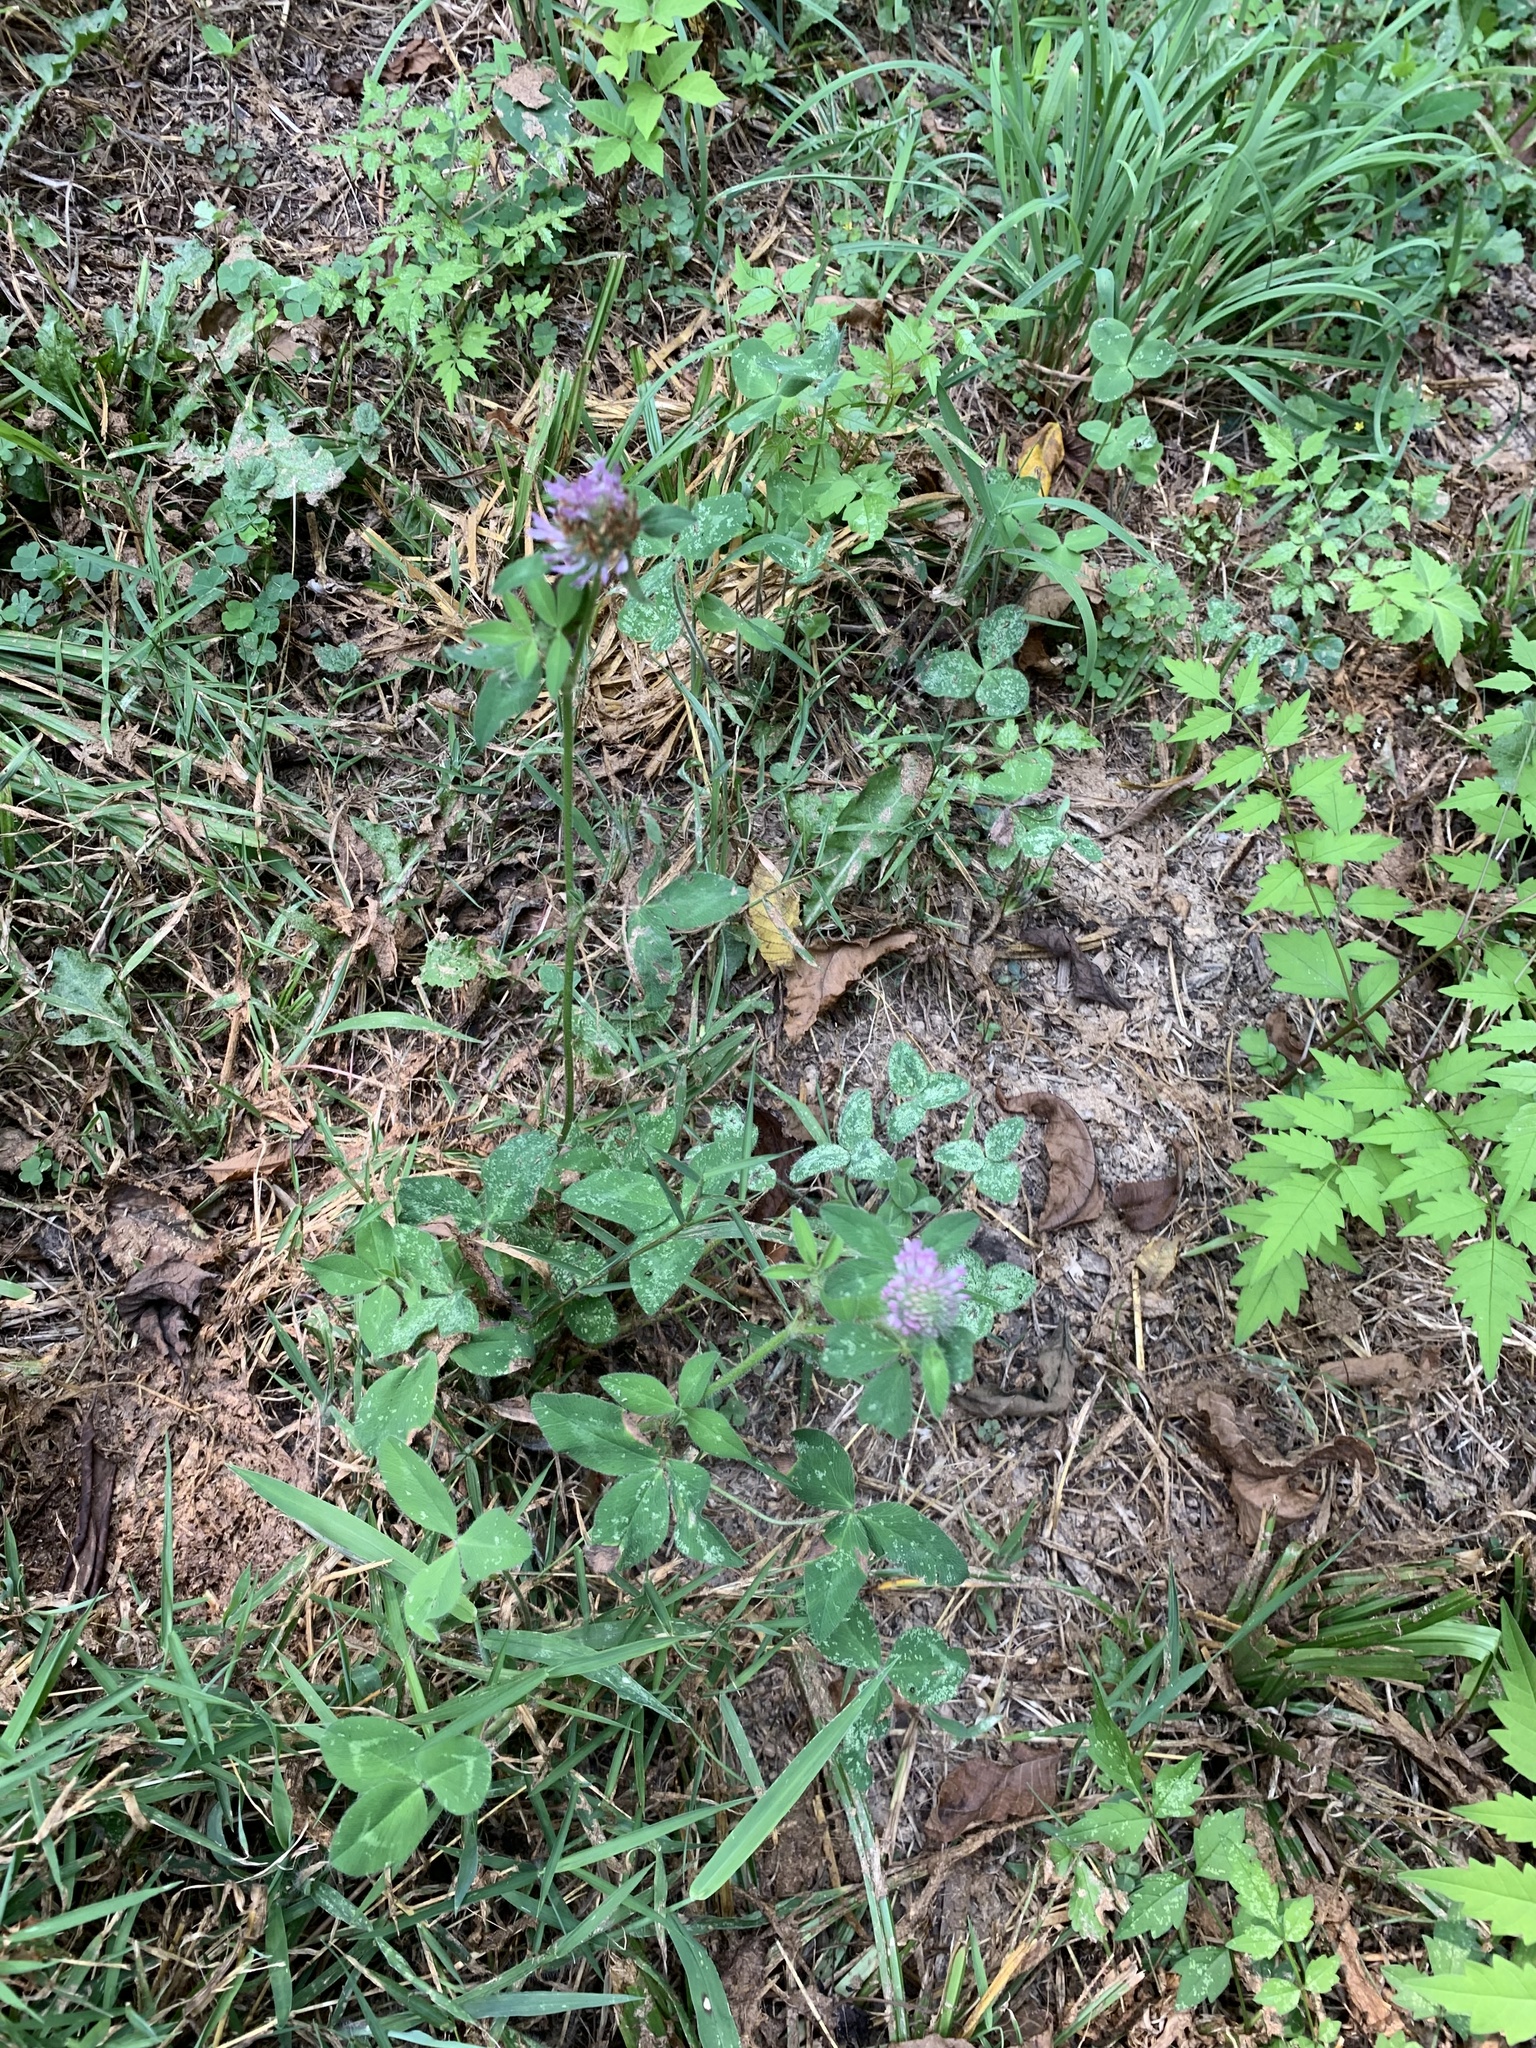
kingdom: Plantae
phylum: Tracheophyta
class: Magnoliopsida
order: Fabales
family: Fabaceae
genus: Trifolium
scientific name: Trifolium pratense
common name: Red clover
